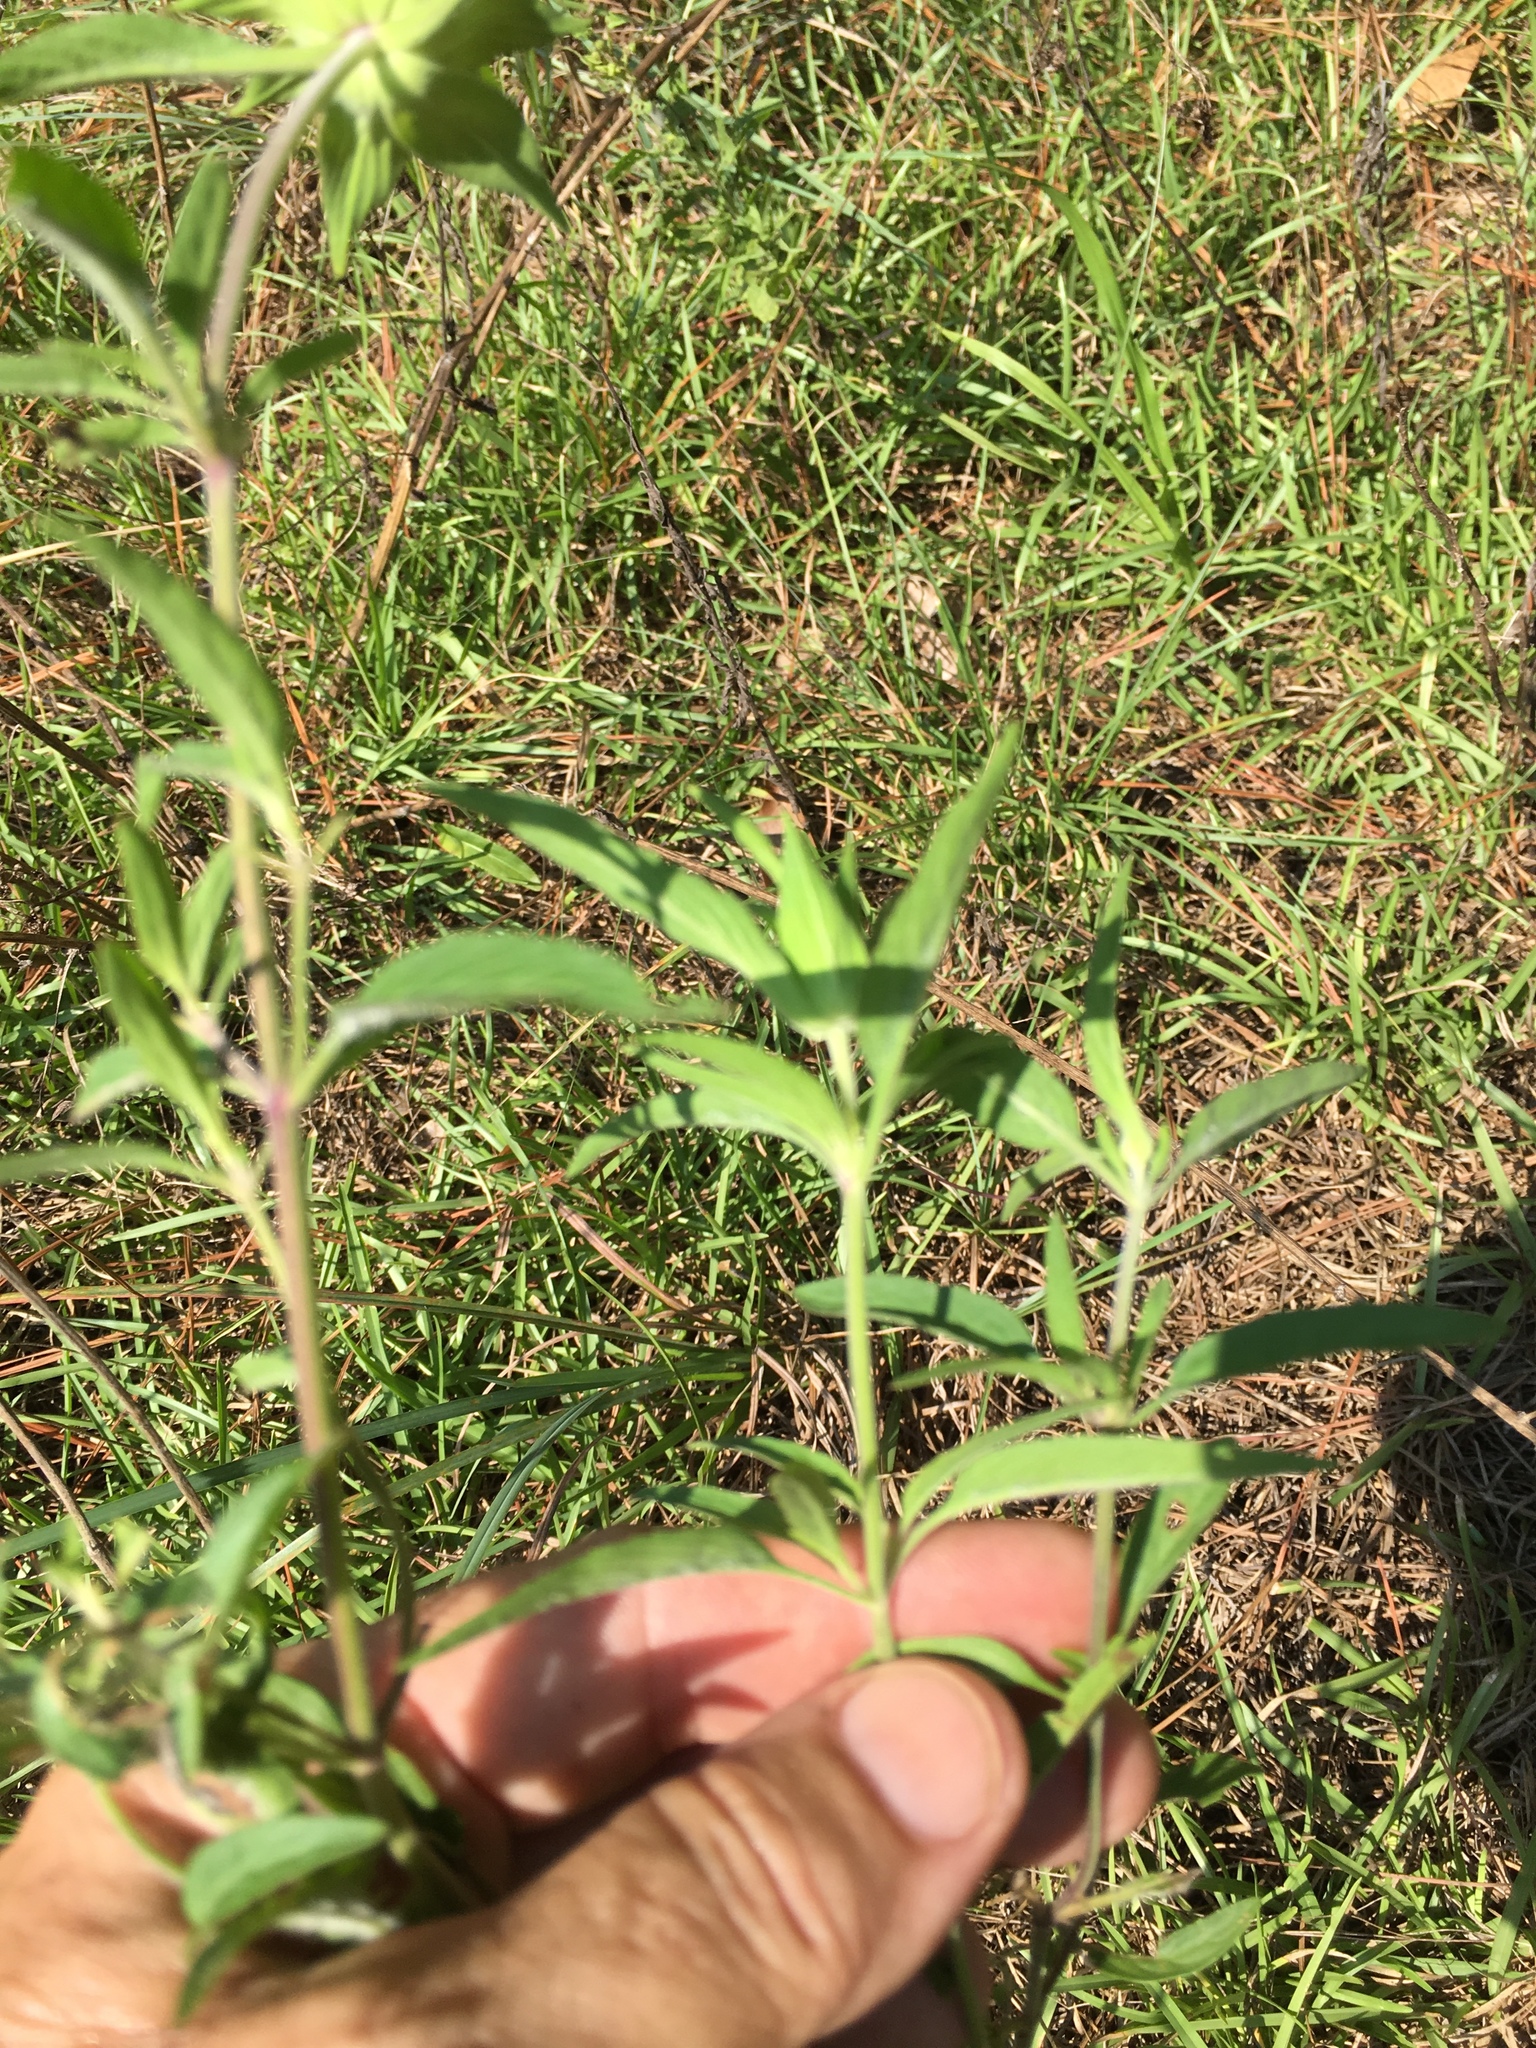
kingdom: Plantae
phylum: Tracheophyta
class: Magnoliopsida
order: Lamiales
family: Lamiaceae
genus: Monarda
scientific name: Monarda punctata
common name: Dotted monarda
